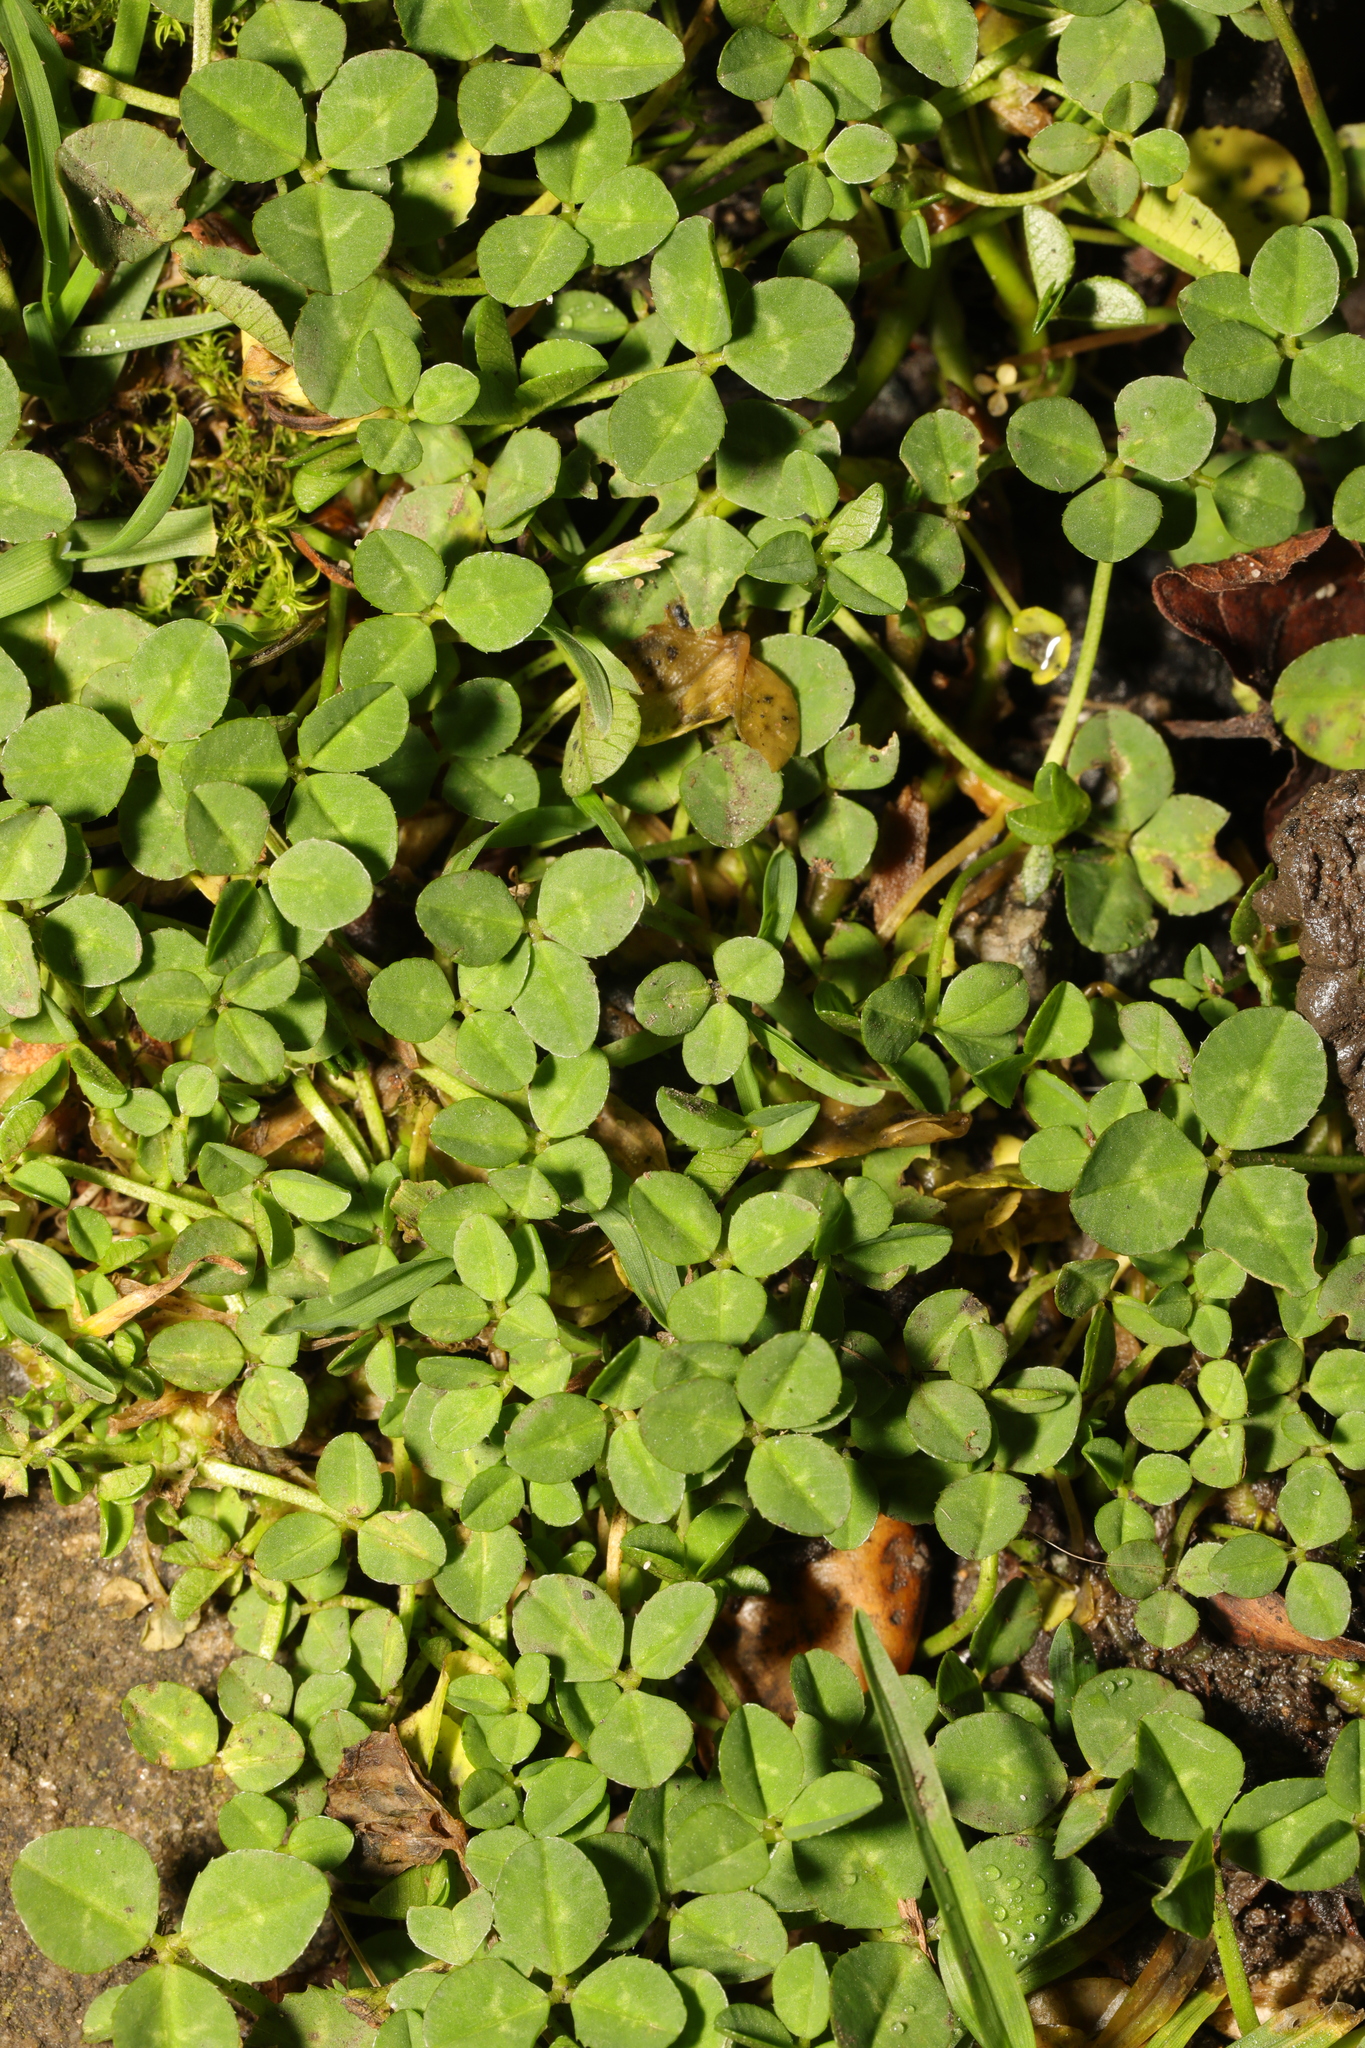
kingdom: Plantae
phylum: Tracheophyta
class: Magnoliopsida
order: Fabales
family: Fabaceae
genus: Trifolium
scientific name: Trifolium repens
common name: White clover
